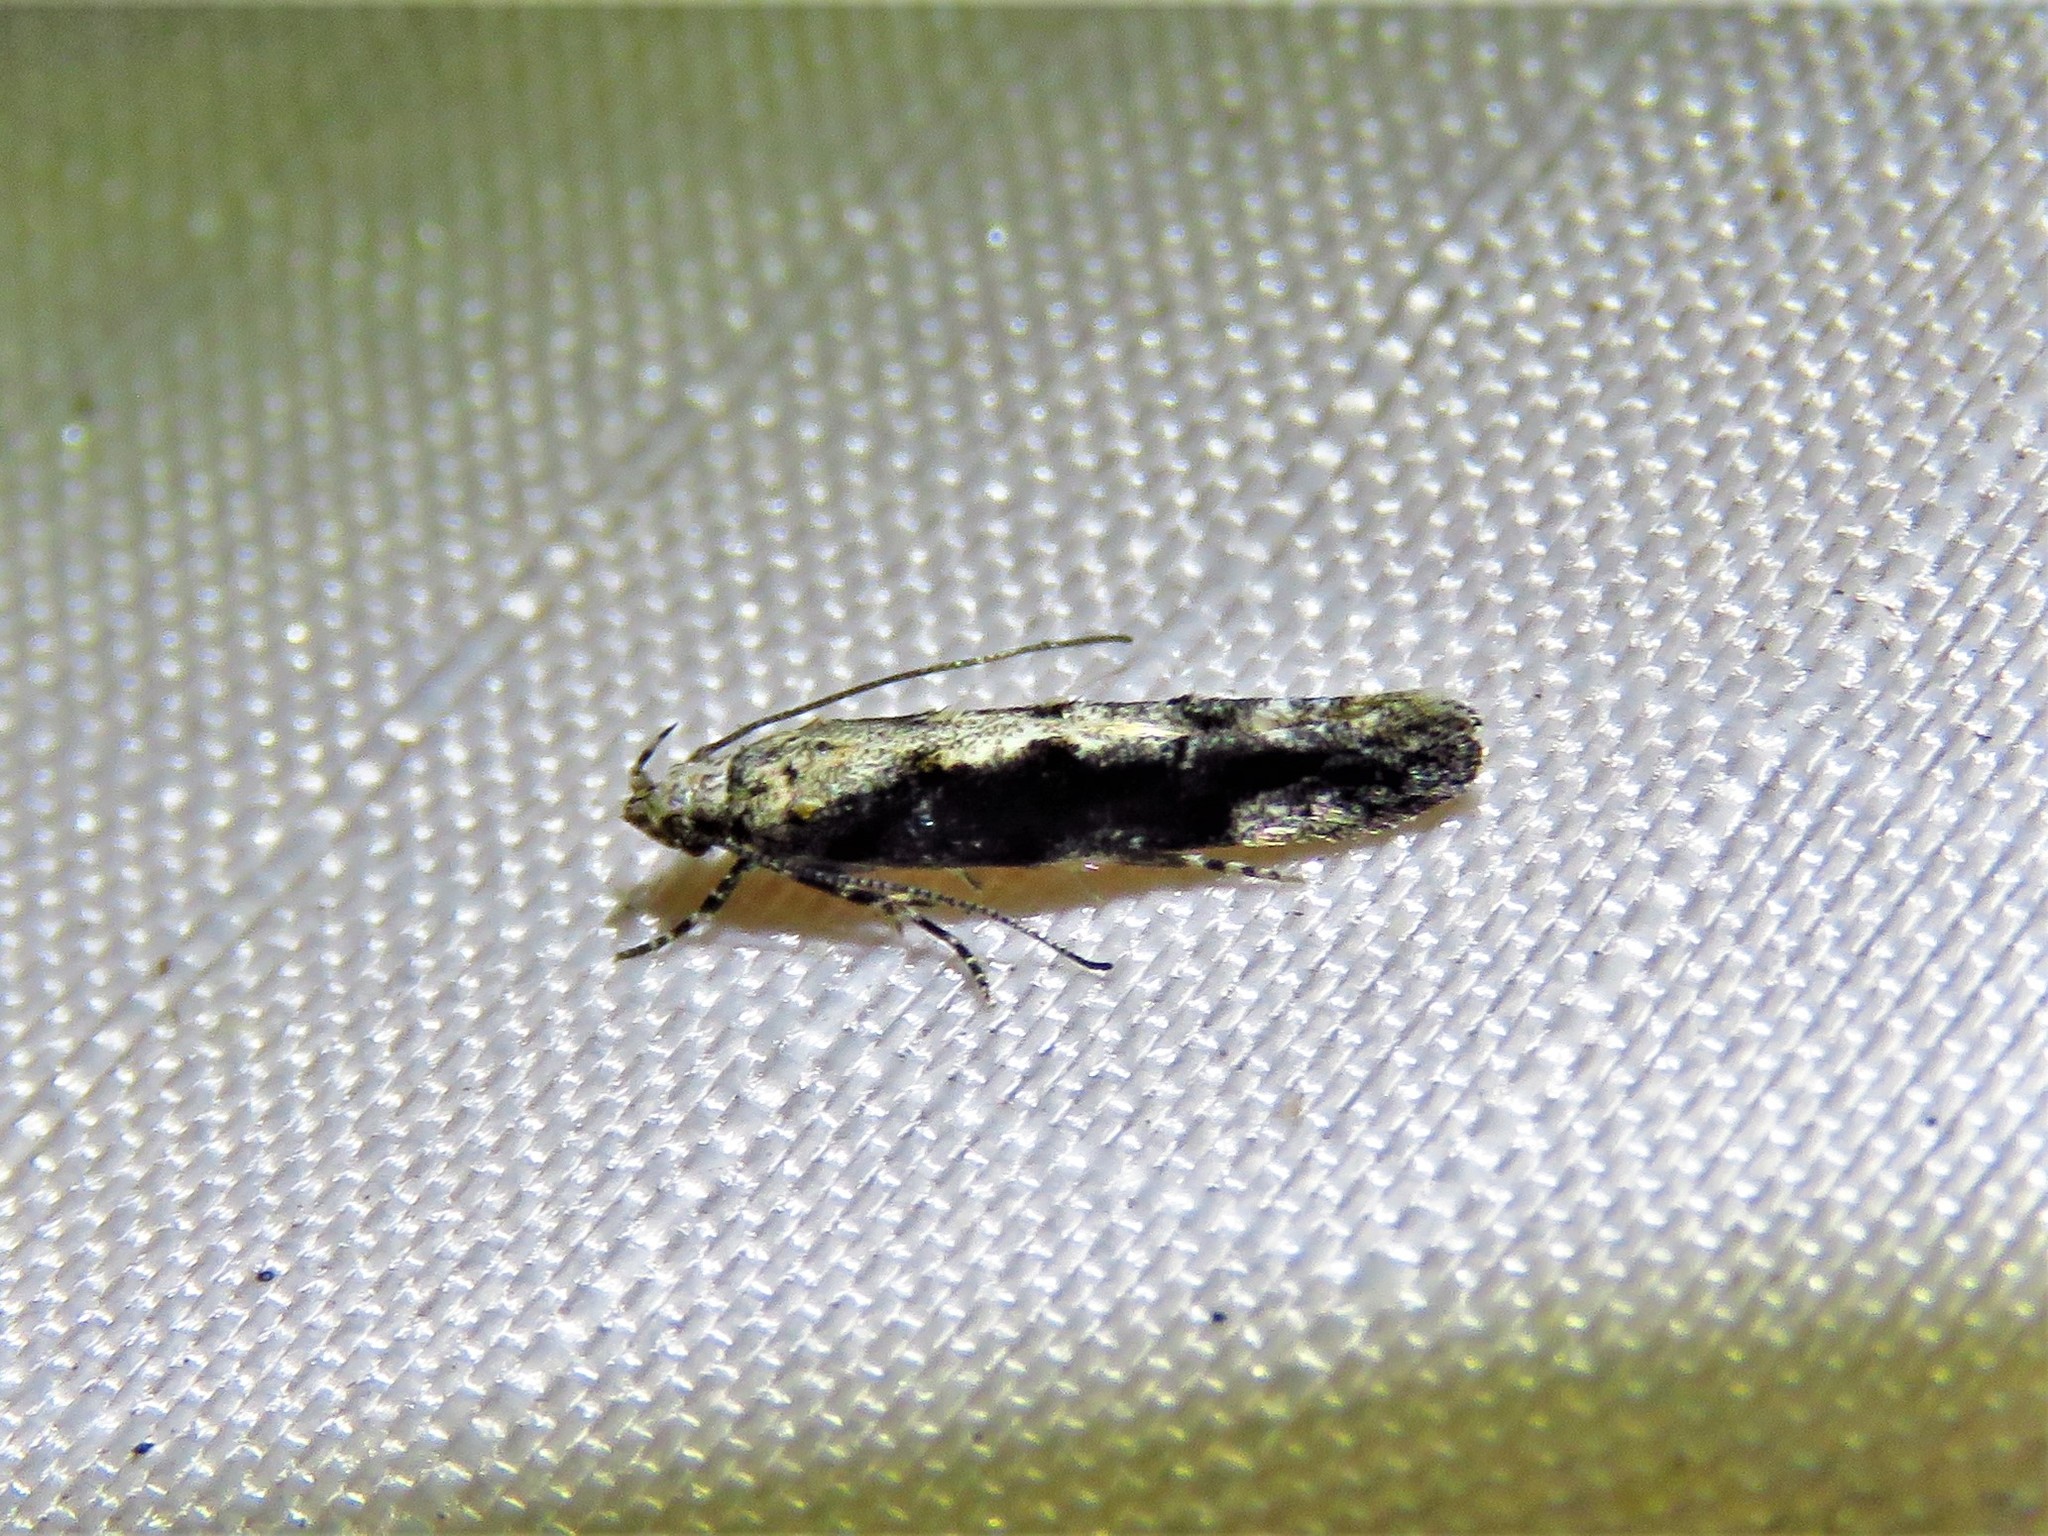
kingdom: Animalia
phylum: Arthropoda
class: Insecta
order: Lepidoptera
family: Gelechiidae
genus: Coleotechnites
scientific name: Coleotechnites florae
